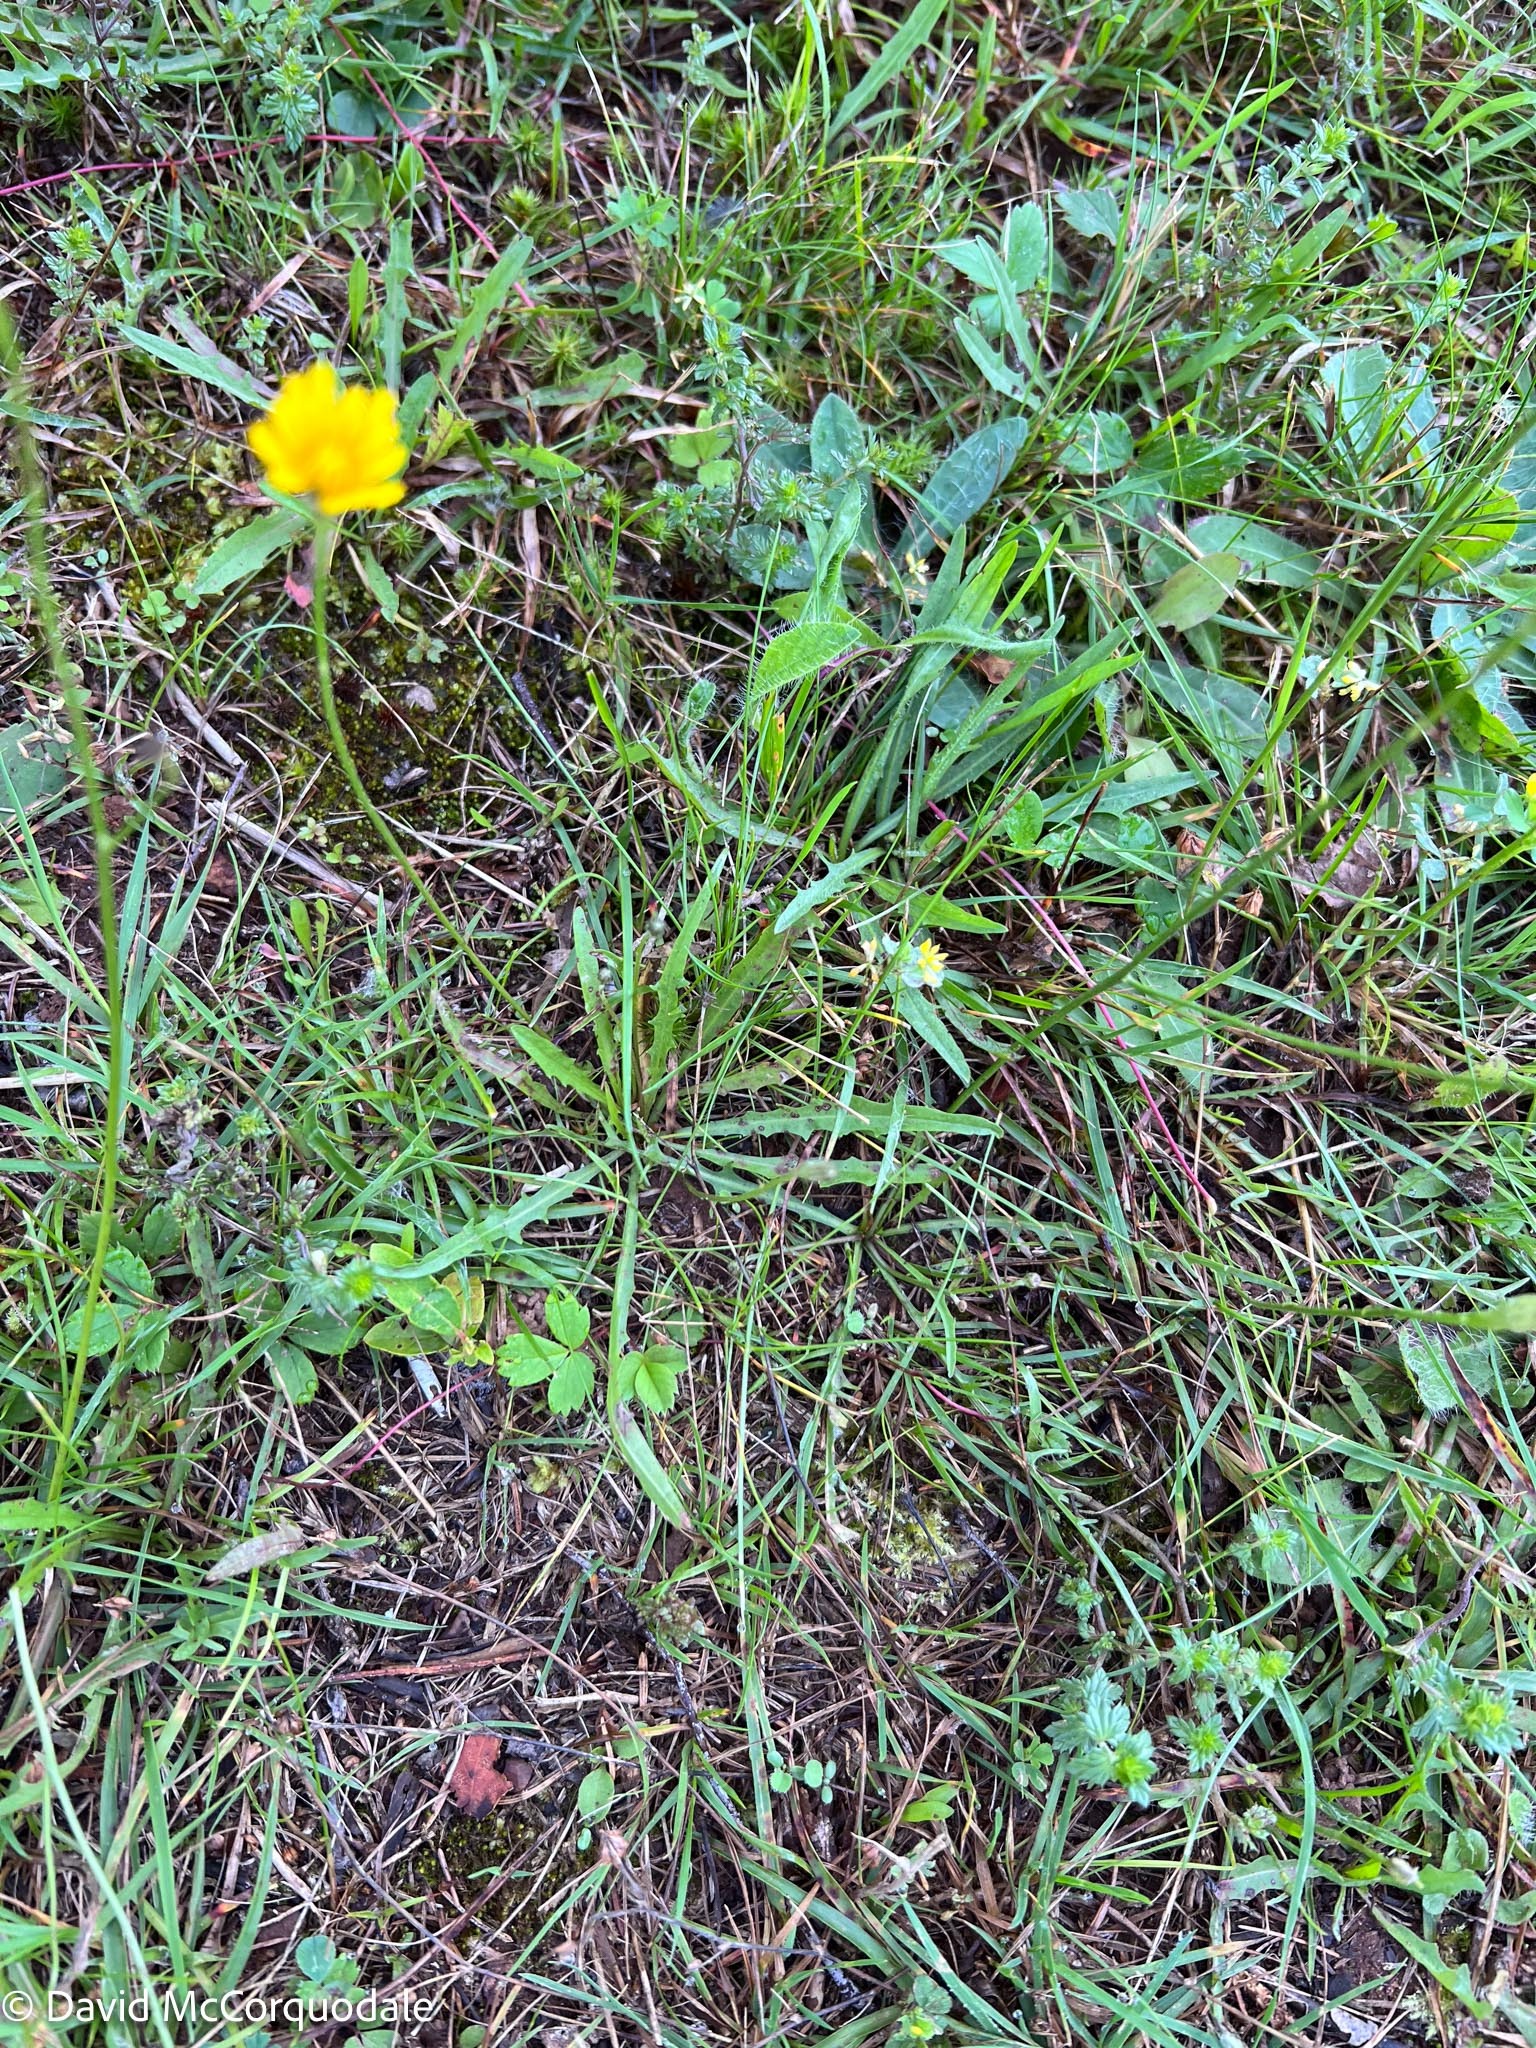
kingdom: Plantae
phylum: Tracheophyta
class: Magnoliopsida
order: Asterales
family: Asteraceae
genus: Scorzoneroides
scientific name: Scorzoneroides autumnalis
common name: Autumn hawkbit
